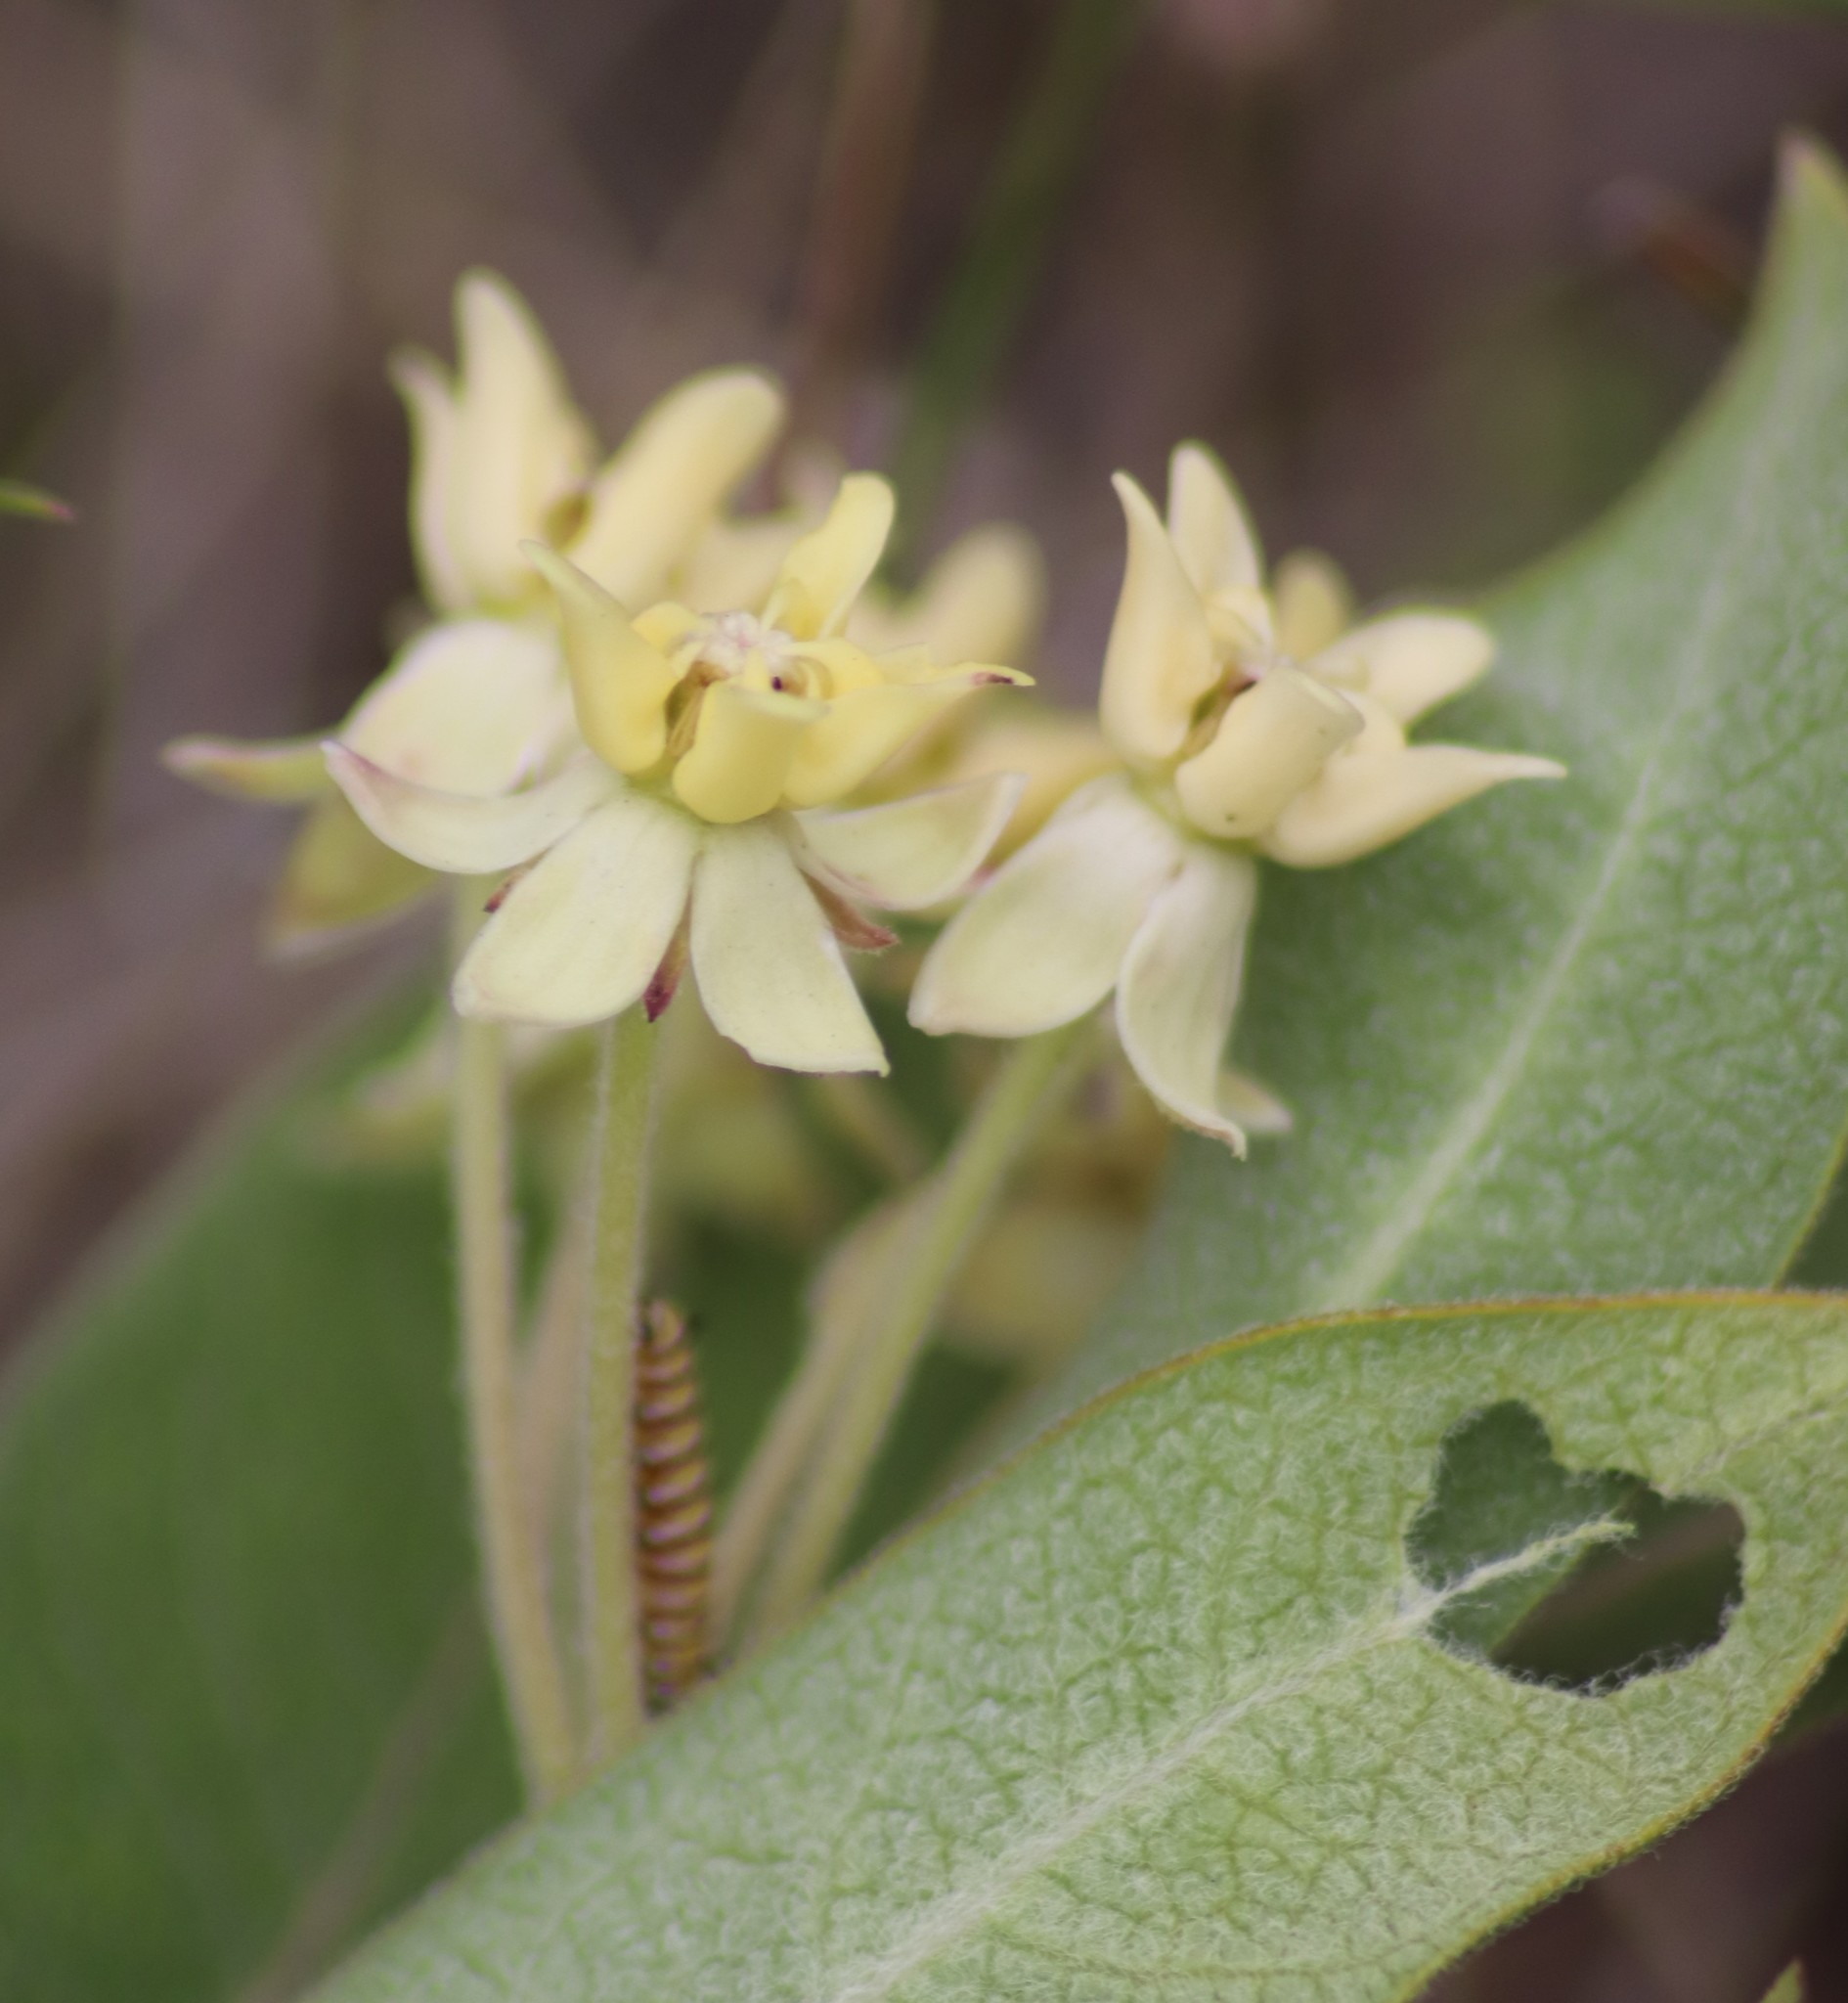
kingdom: Plantae
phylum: Tracheophyta
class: Magnoliopsida
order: Gentianales
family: Apocynaceae
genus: Asclepias
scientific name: Asclepias ovalifolia
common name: Dwarf milkweed
